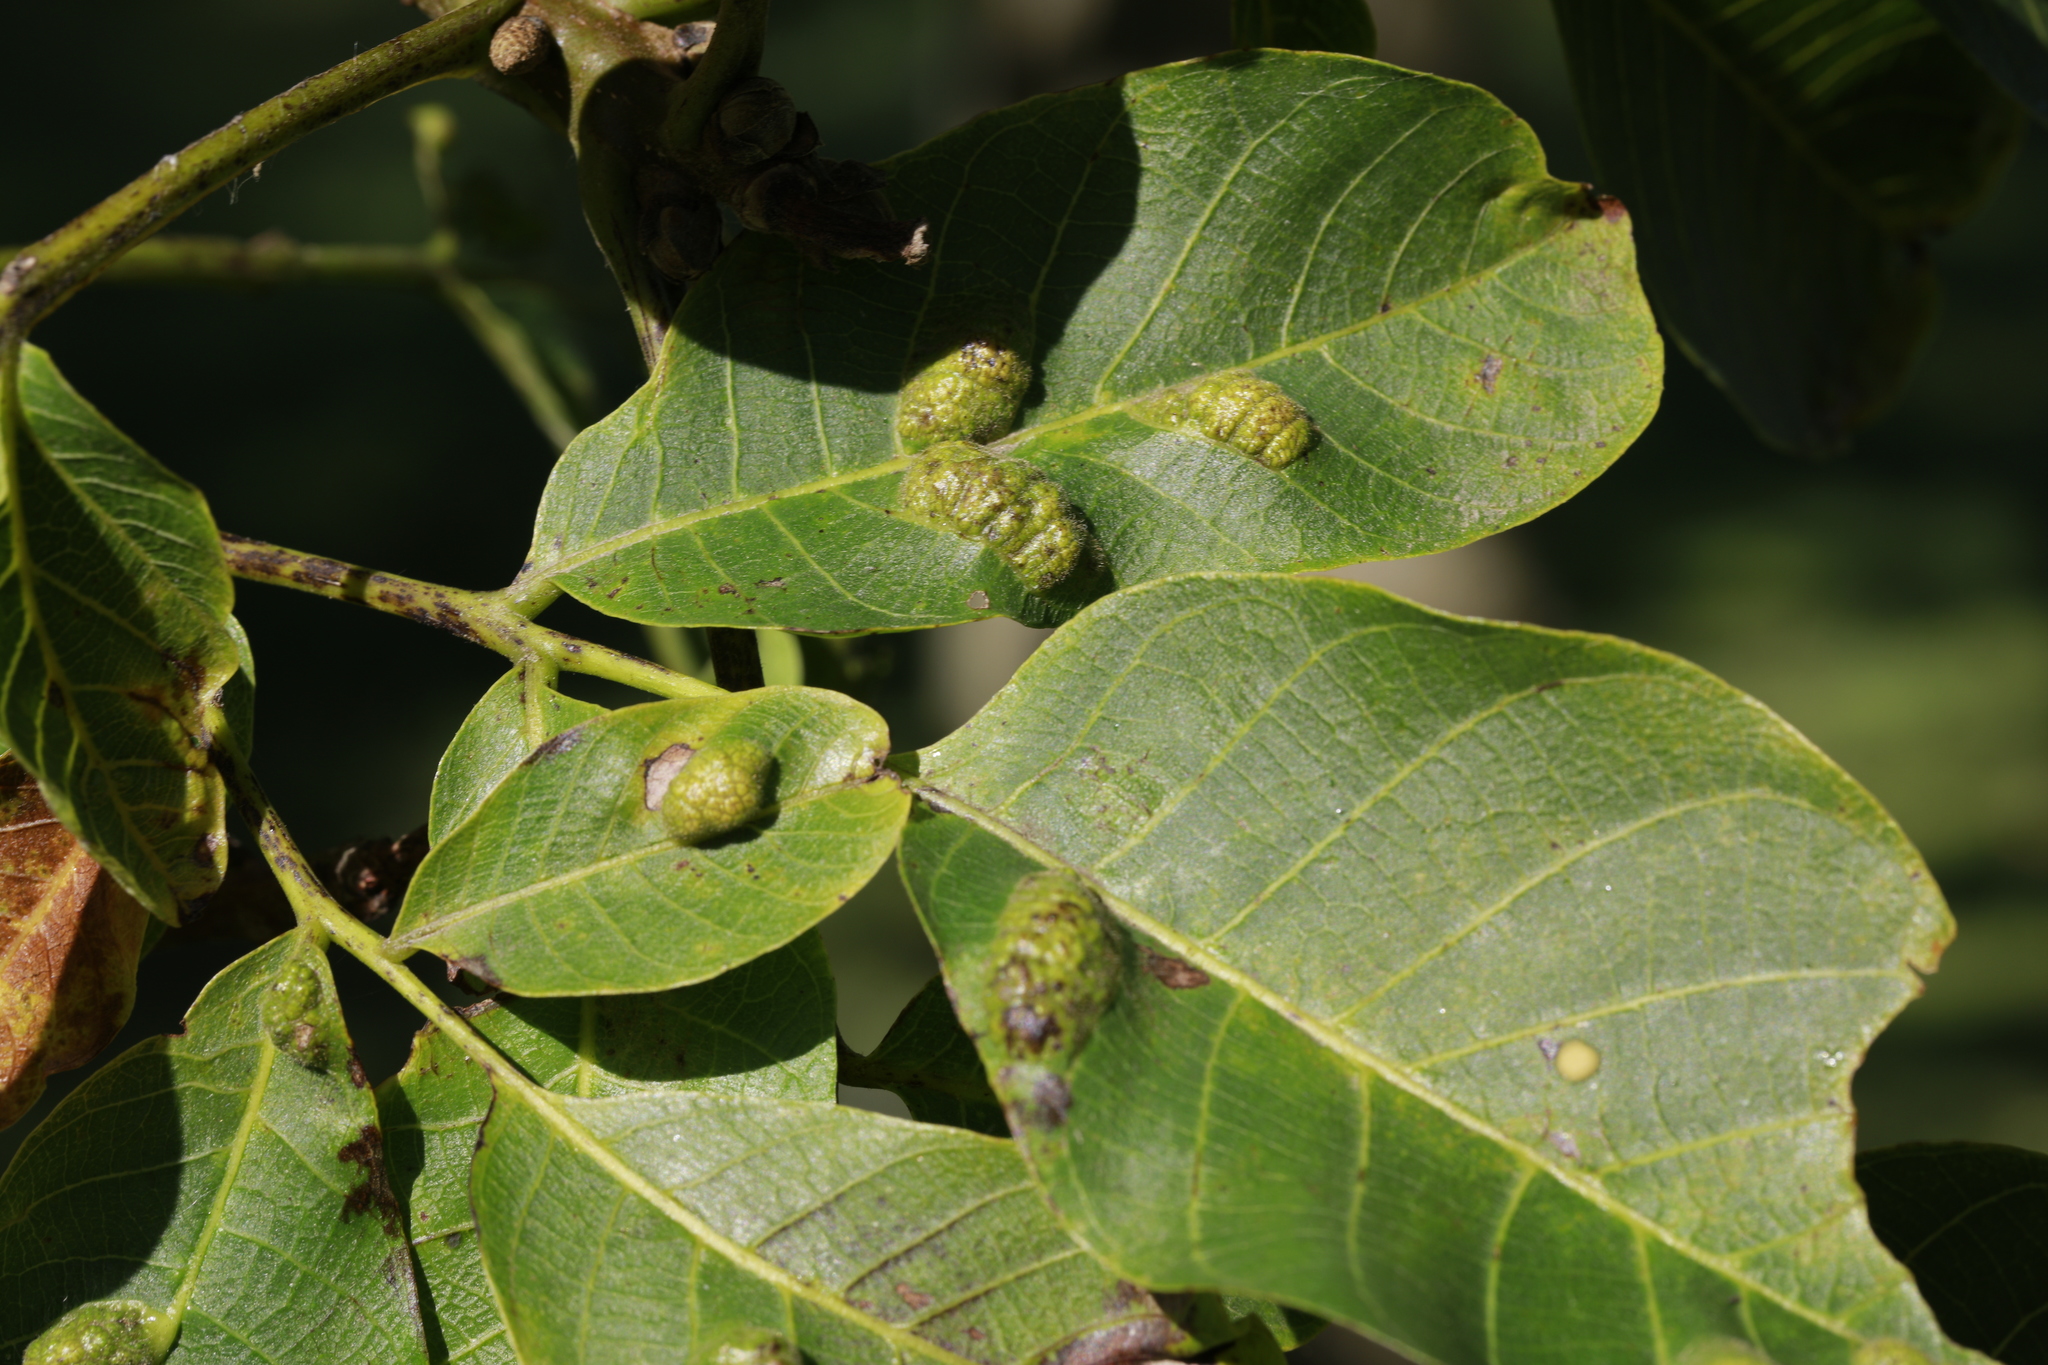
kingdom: Animalia
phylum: Arthropoda
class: Arachnida
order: Trombidiformes
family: Eriophyidae
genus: Aceria
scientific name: Aceria erinea
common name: Persian walnut erineum mite
